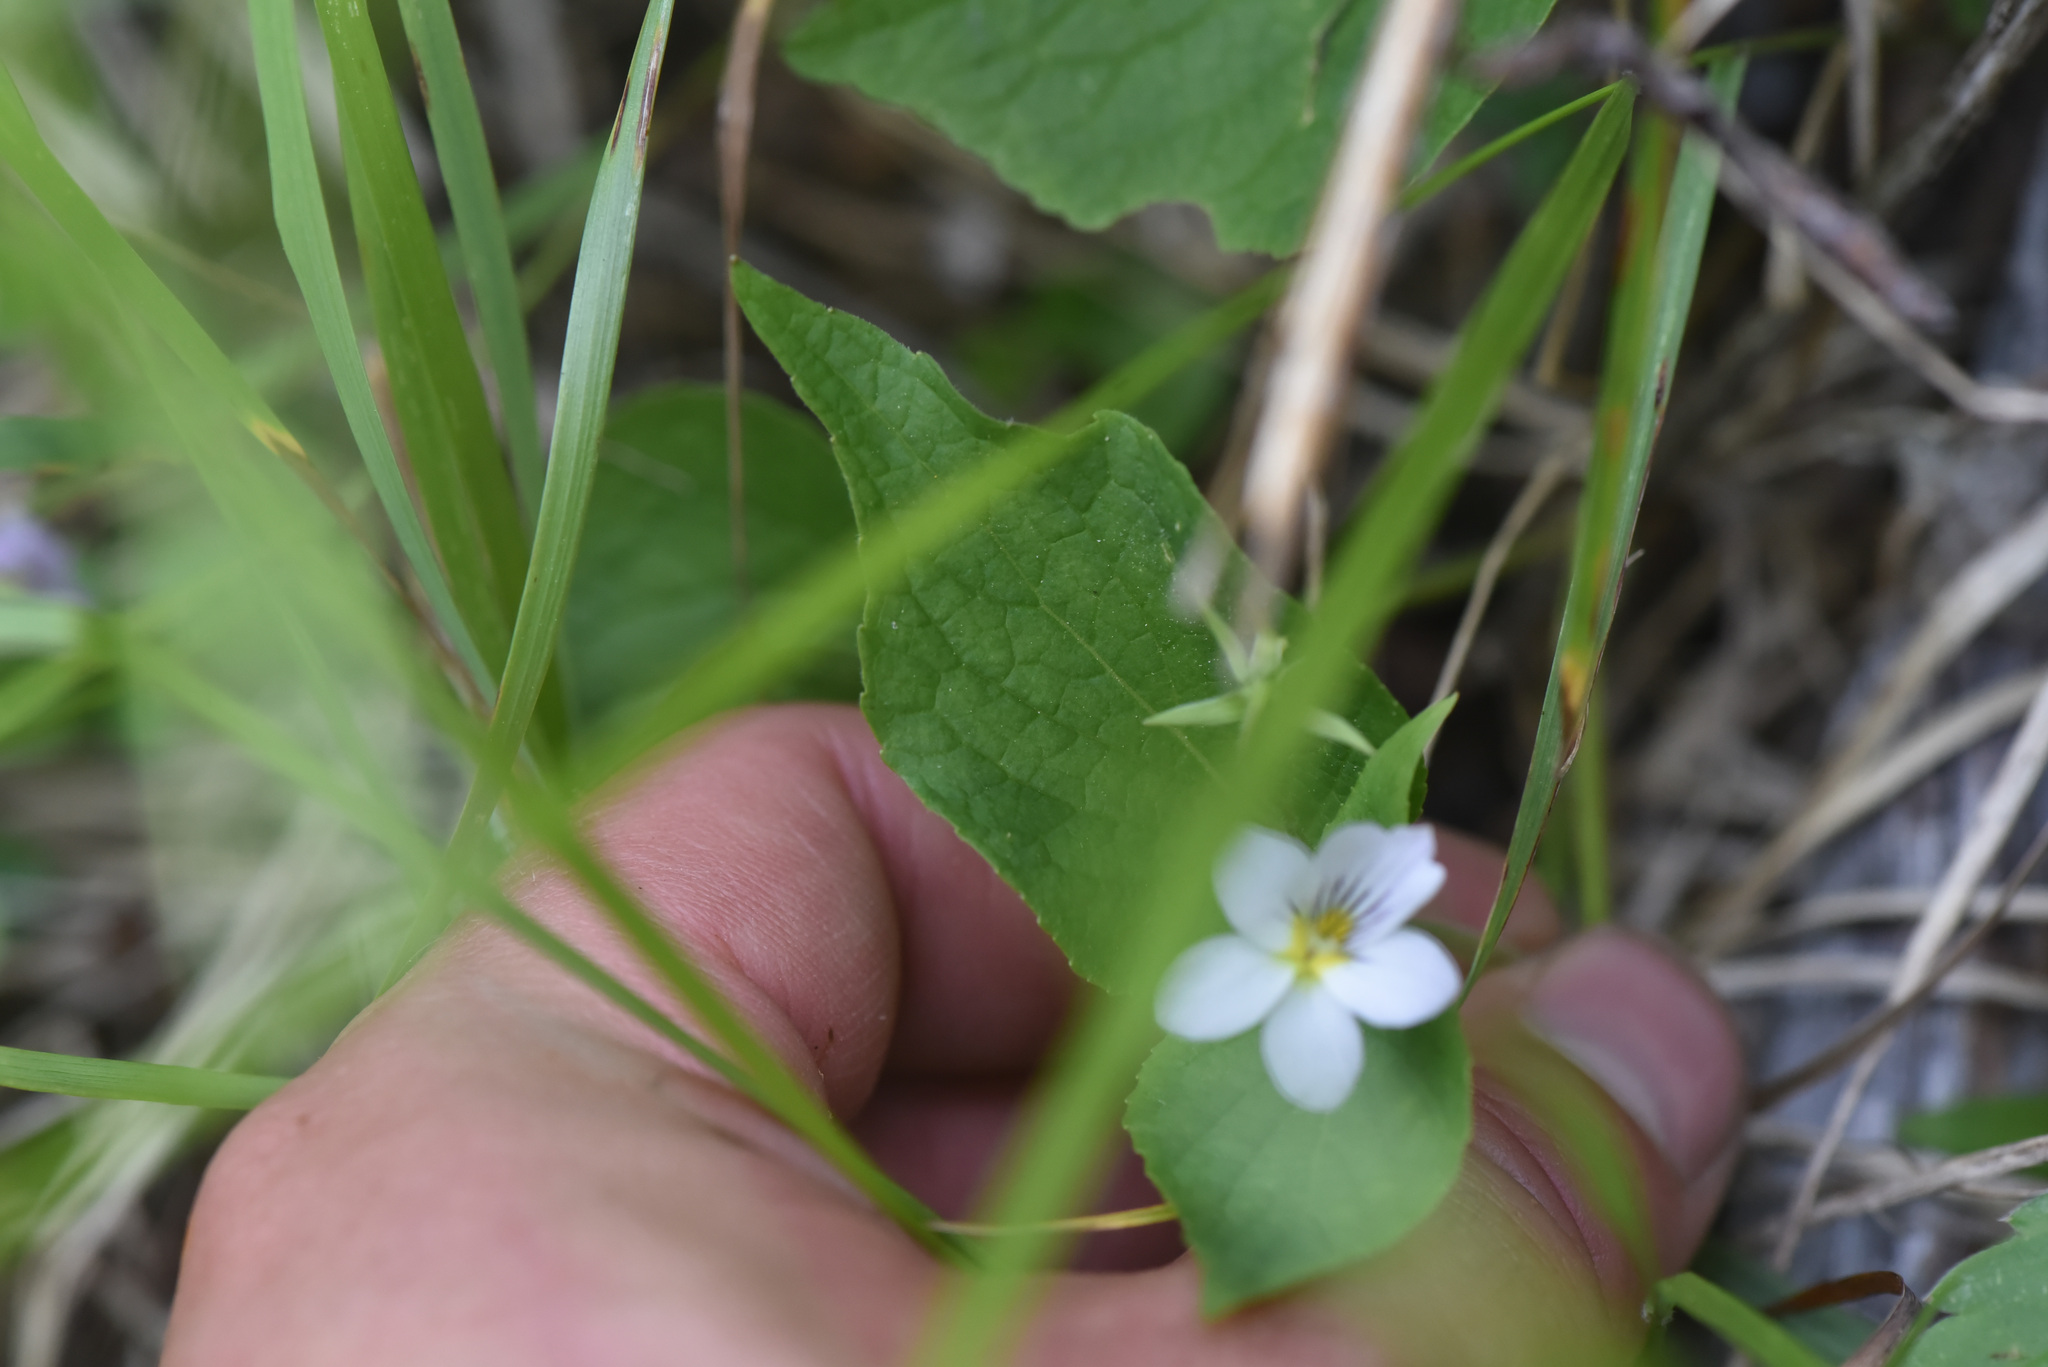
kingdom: Plantae
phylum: Tracheophyta
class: Magnoliopsida
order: Malpighiales
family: Violaceae
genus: Viola
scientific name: Viola canadensis
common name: Canada violet
